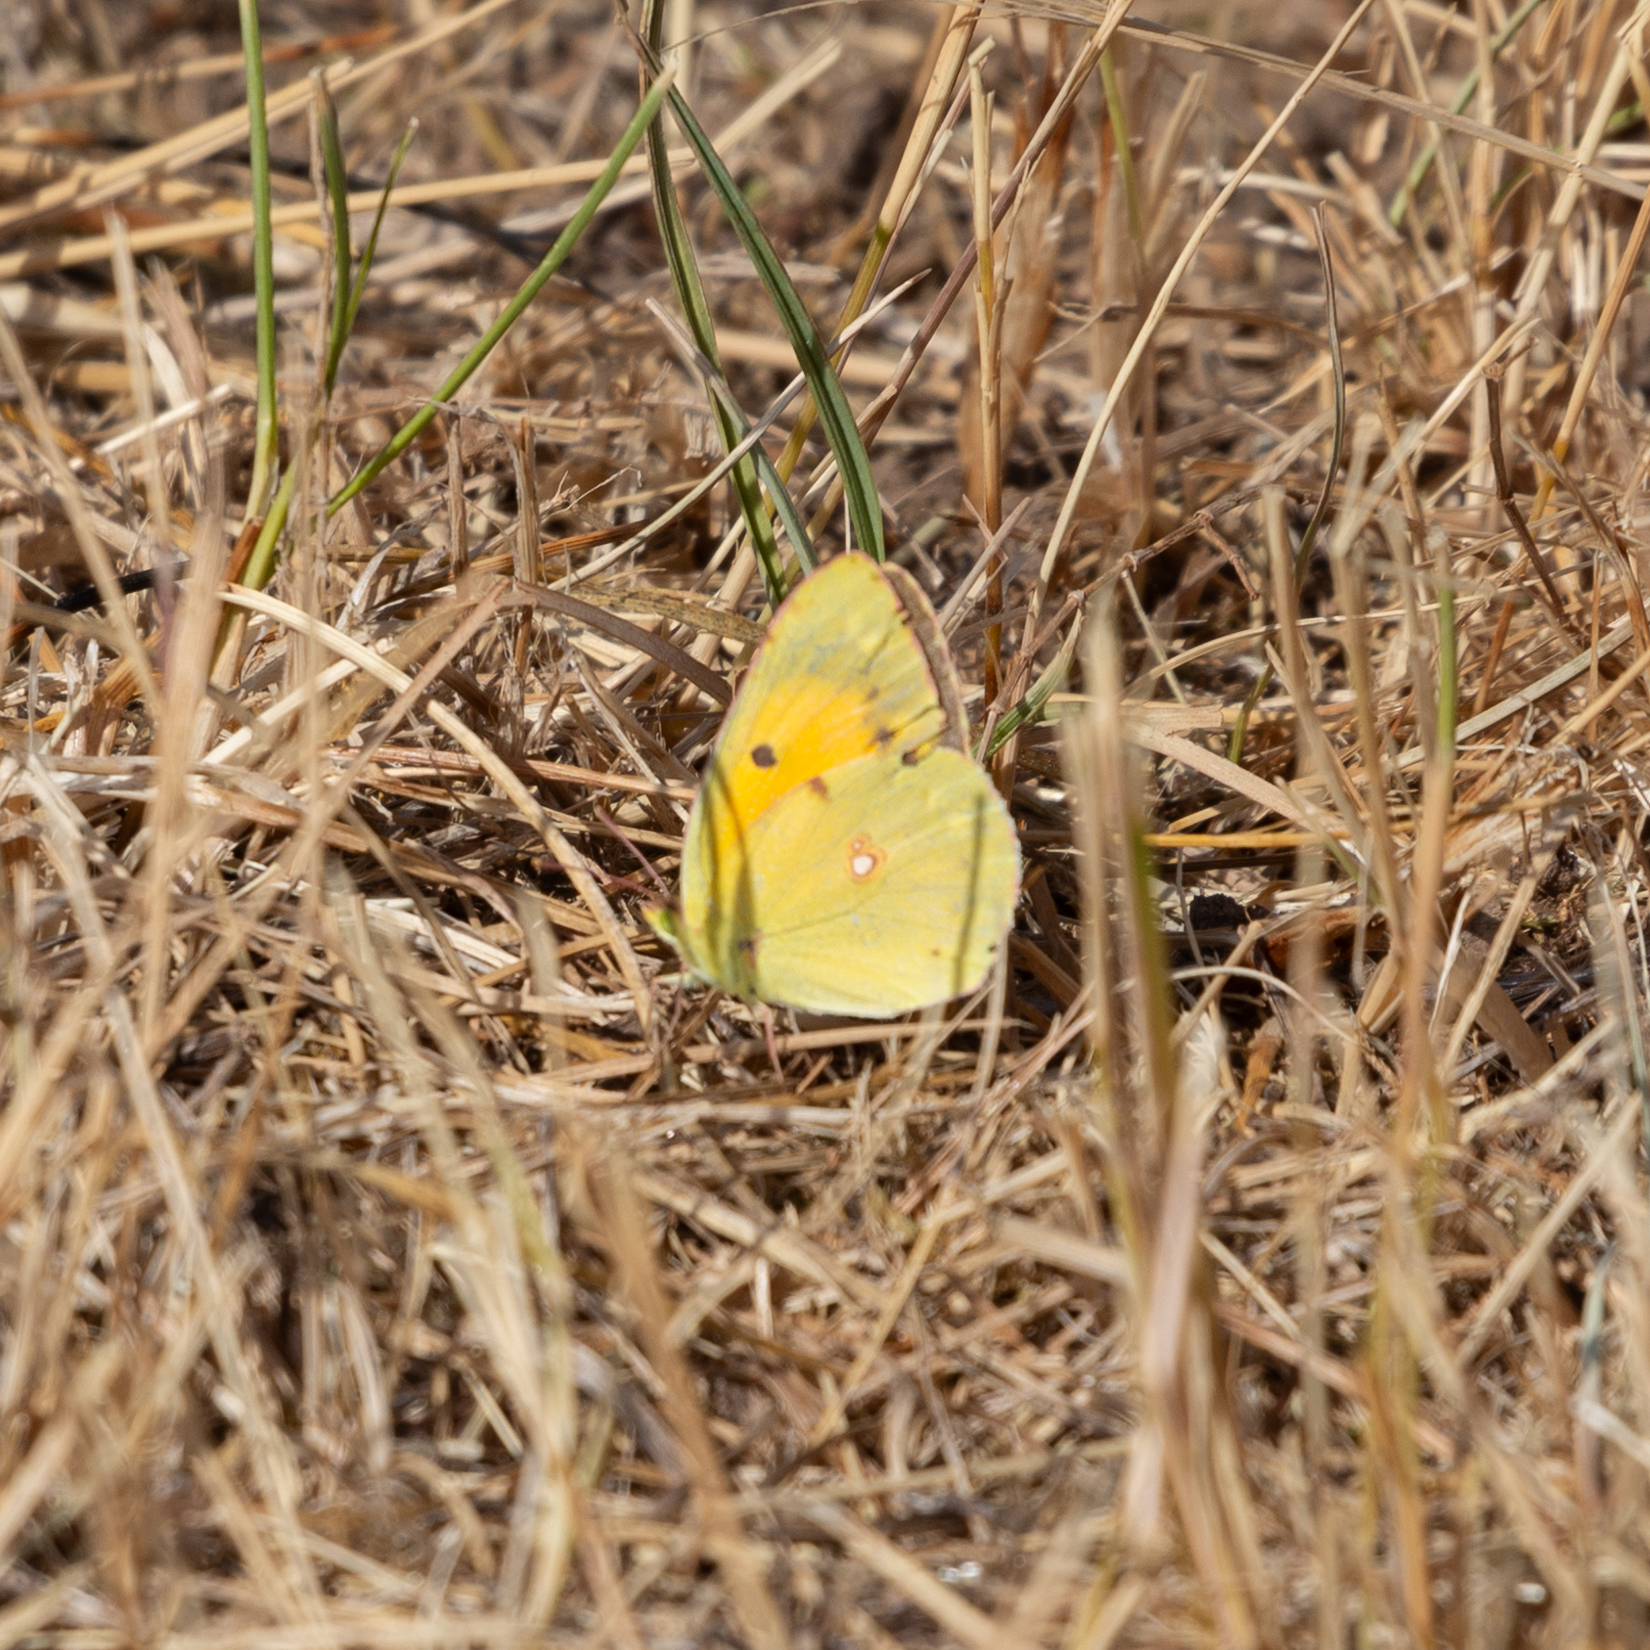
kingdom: Animalia
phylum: Arthropoda
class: Insecta
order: Lepidoptera
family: Pieridae
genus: Colias
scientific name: Colias croceus
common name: Clouded yellow
